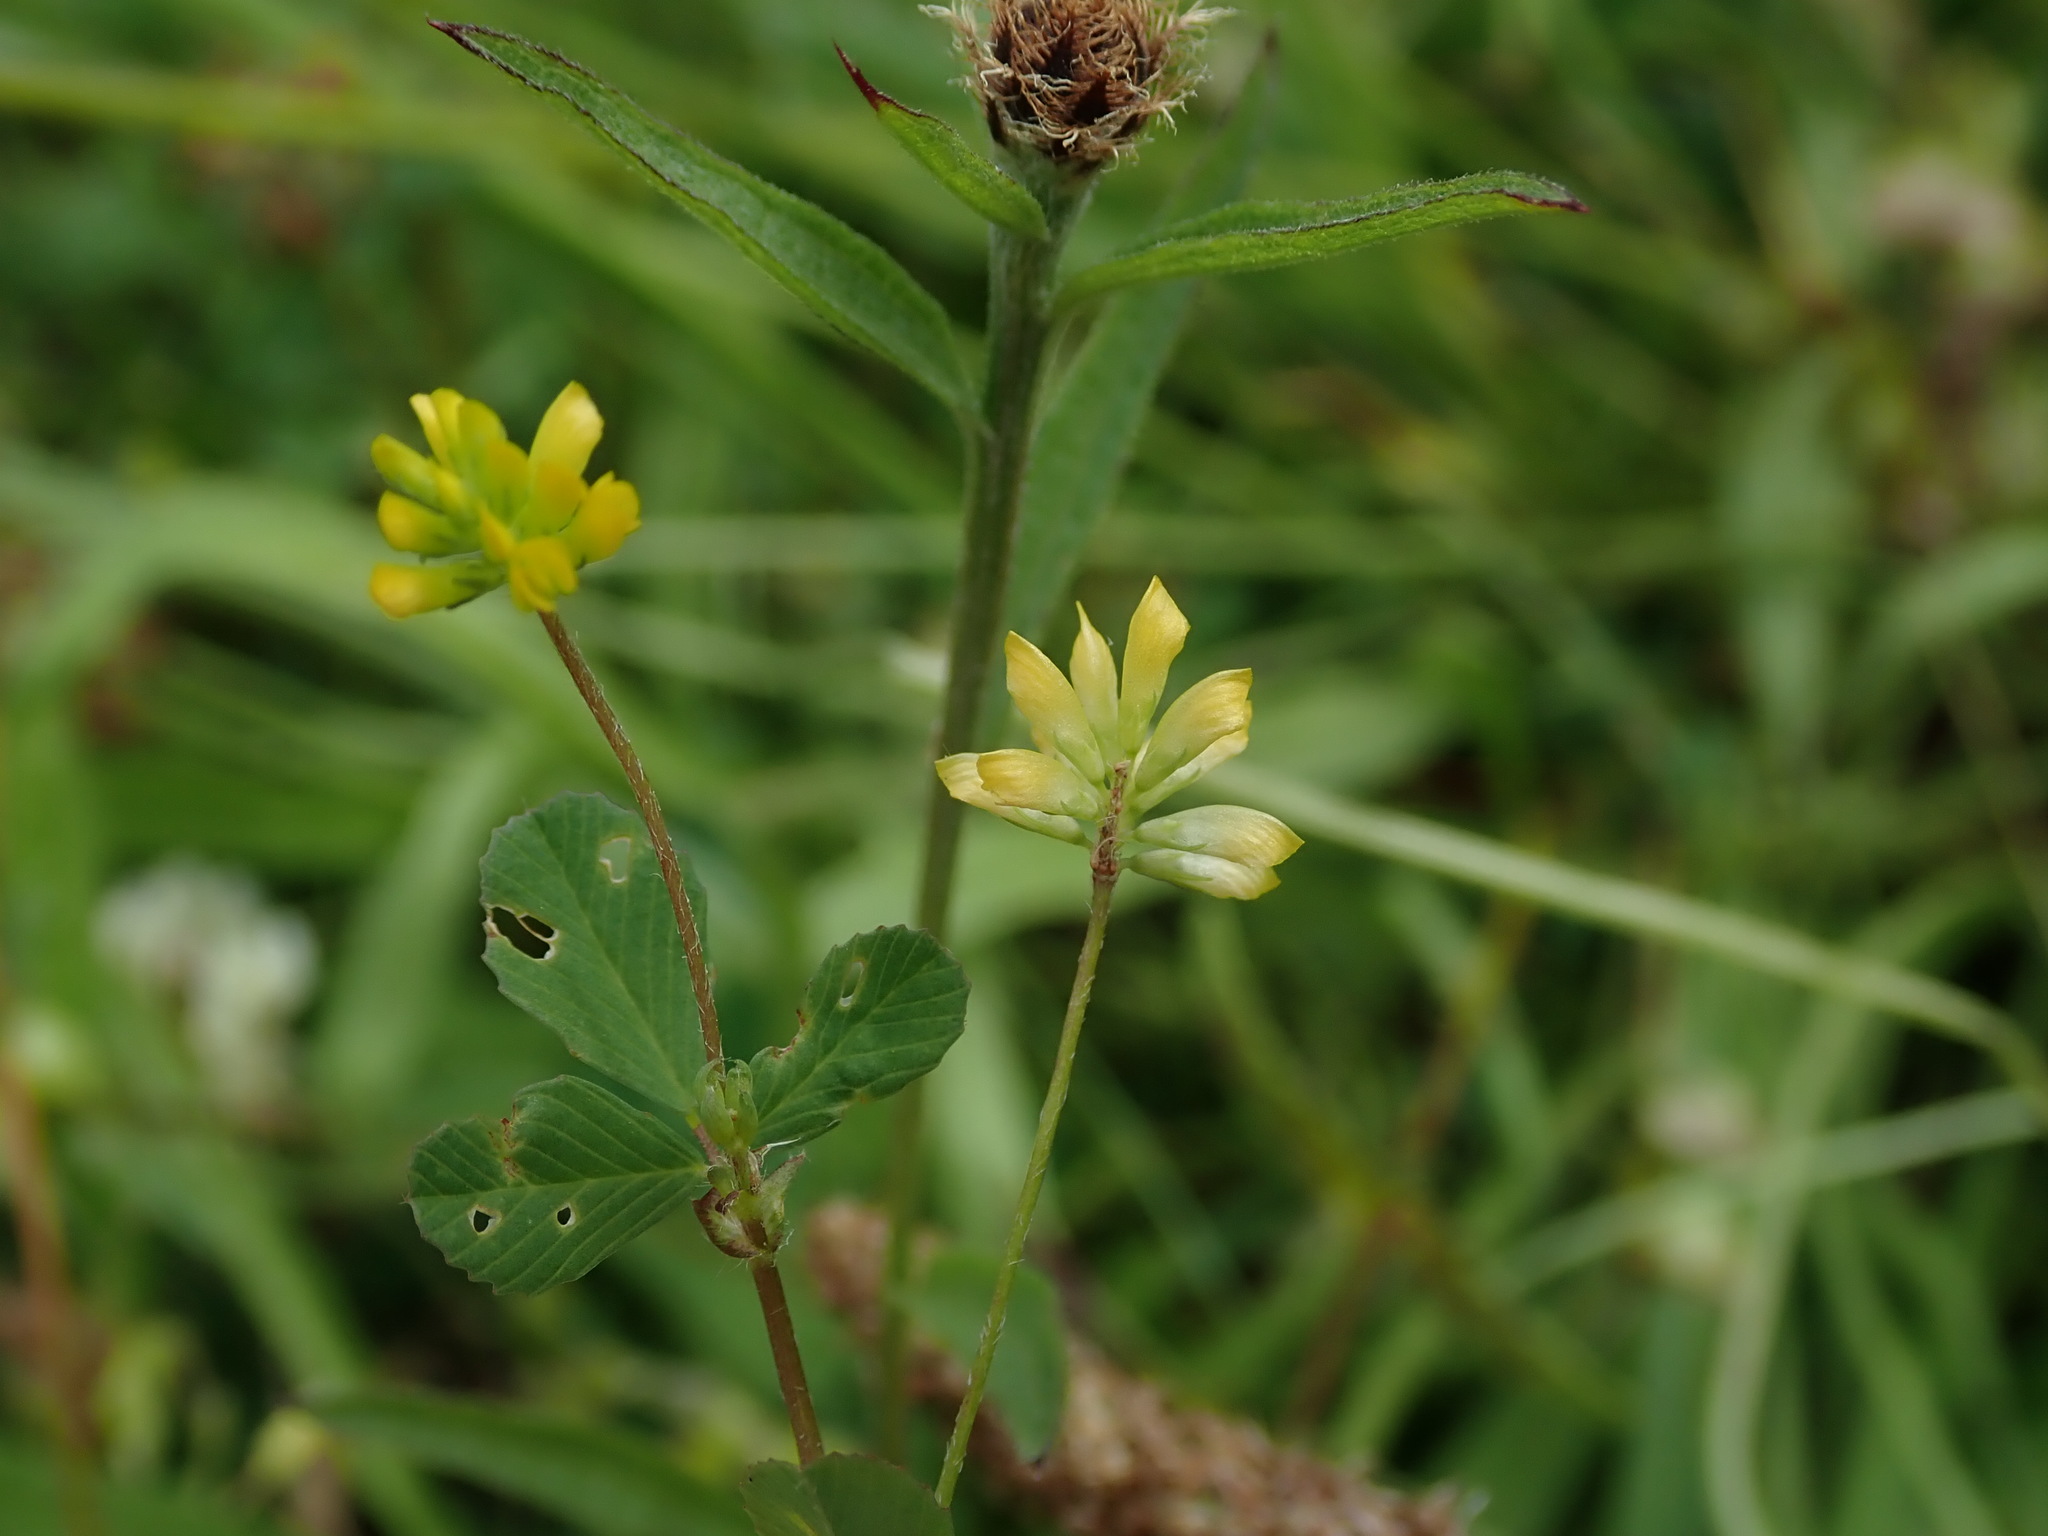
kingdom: Plantae
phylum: Tracheophyta
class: Magnoliopsida
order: Fabales
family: Fabaceae
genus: Trifolium
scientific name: Trifolium dubium
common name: Suckling clover
